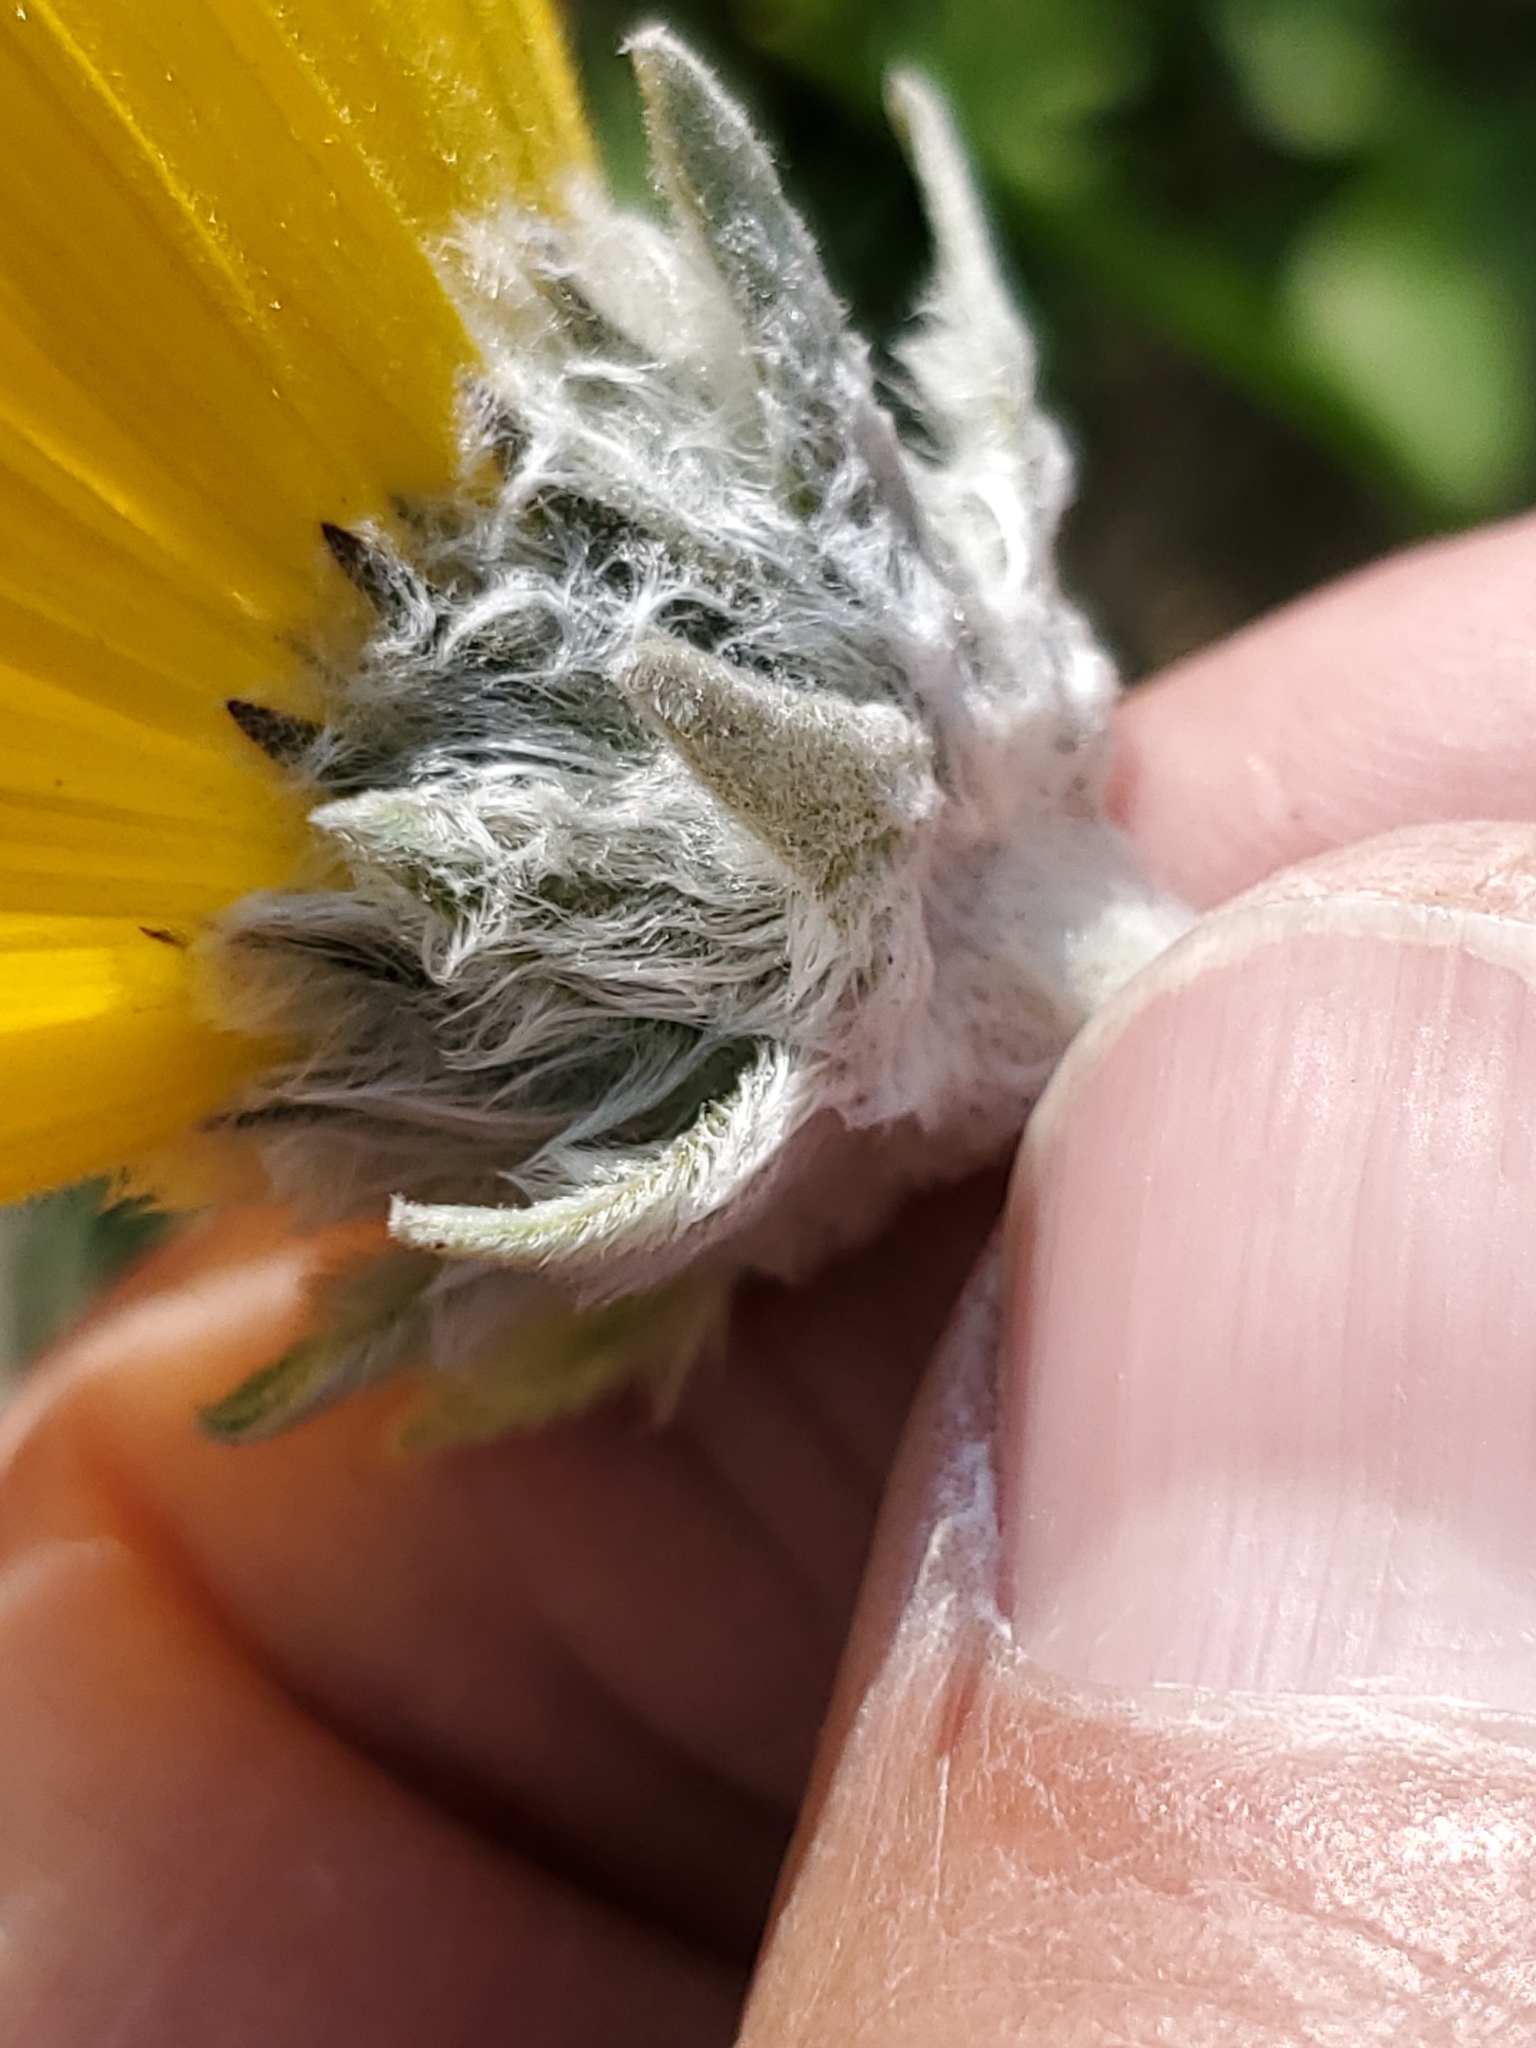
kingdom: Plantae
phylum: Tracheophyta
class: Magnoliopsida
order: Asterales
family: Asteraceae
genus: Wyethia
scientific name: Wyethia sagittata
